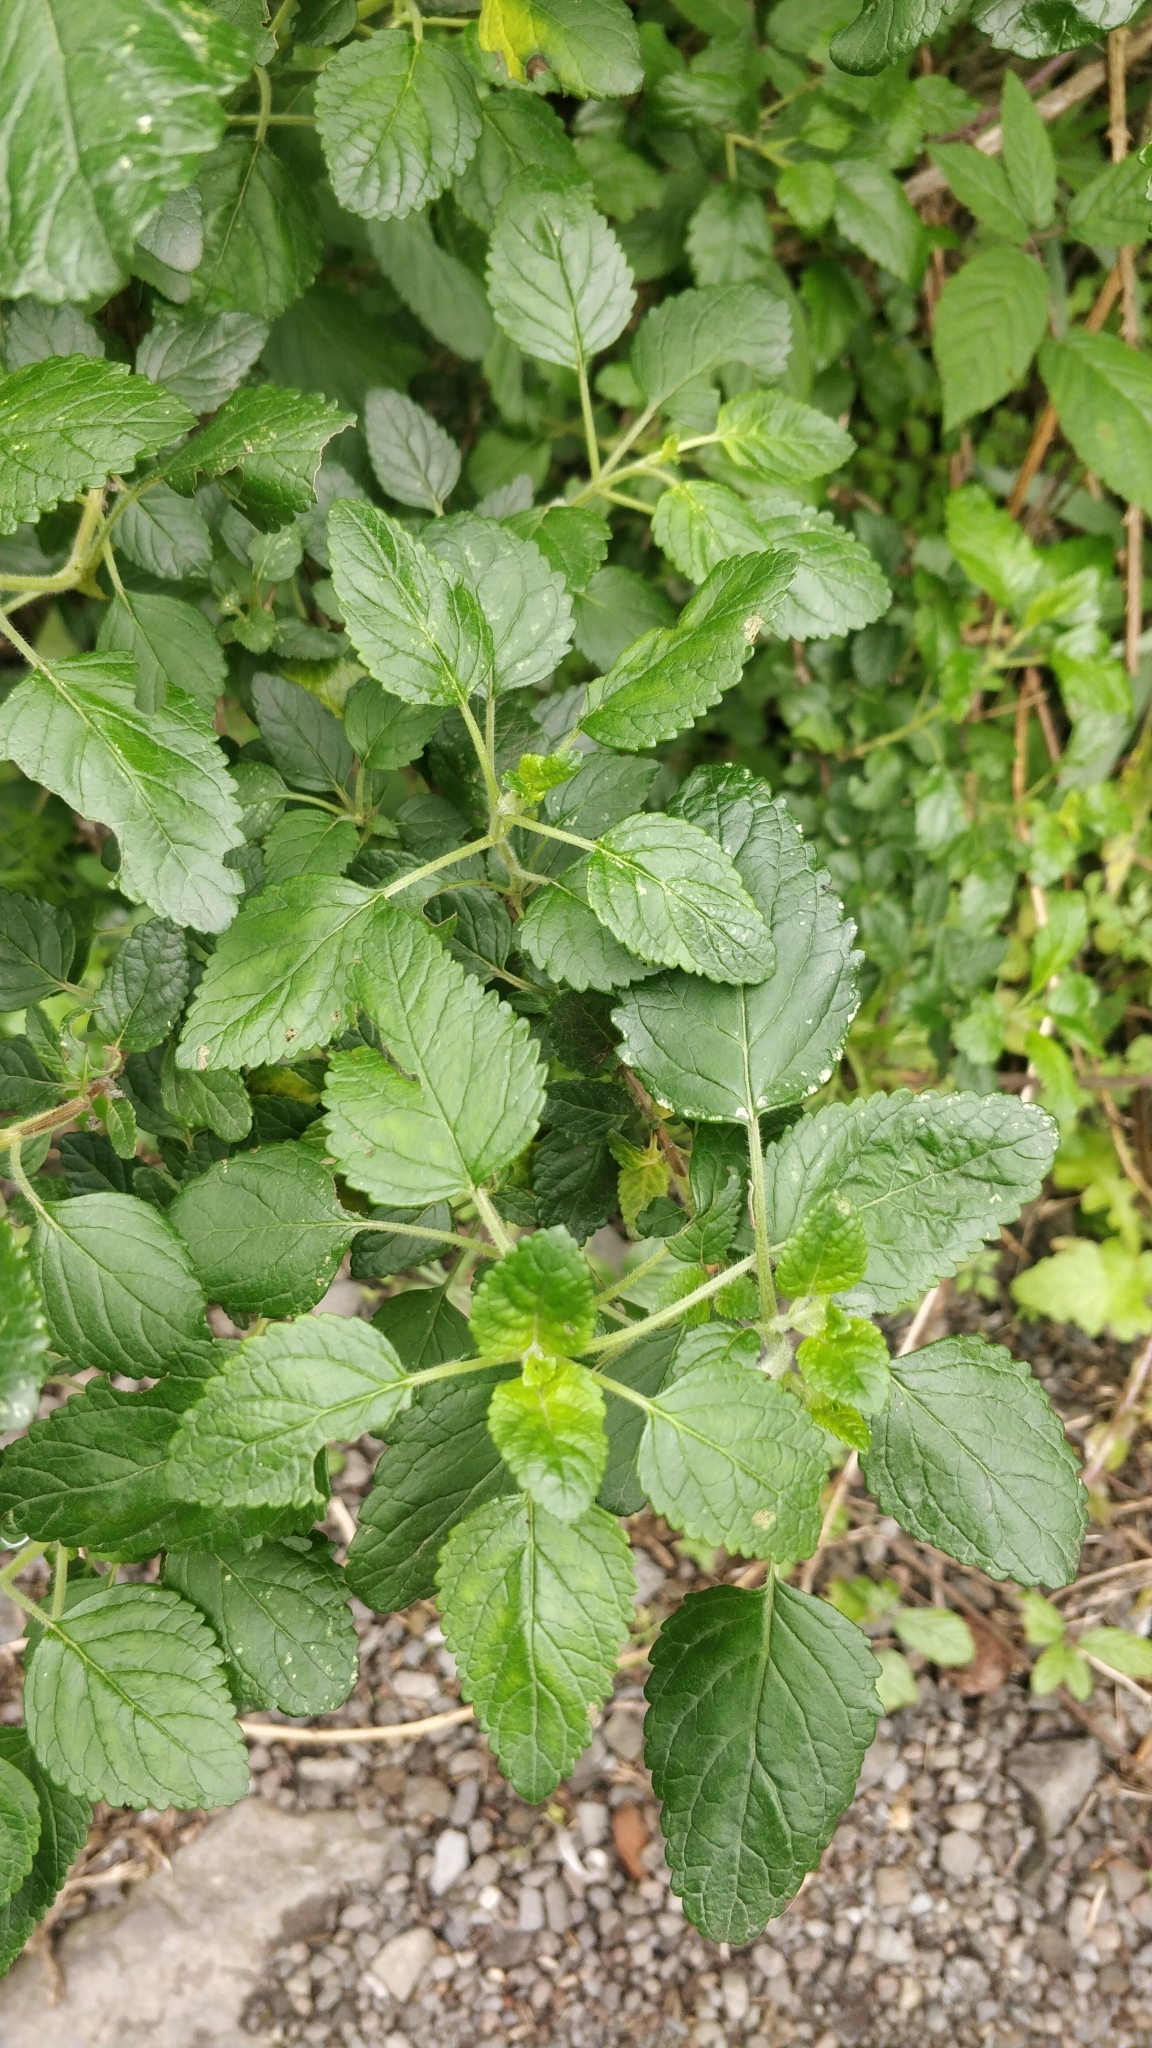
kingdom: Plantae
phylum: Tracheophyta
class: Magnoliopsida
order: Lamiales
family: Lamiaceae
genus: Bystropogon
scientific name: Bystropogon canariensis
